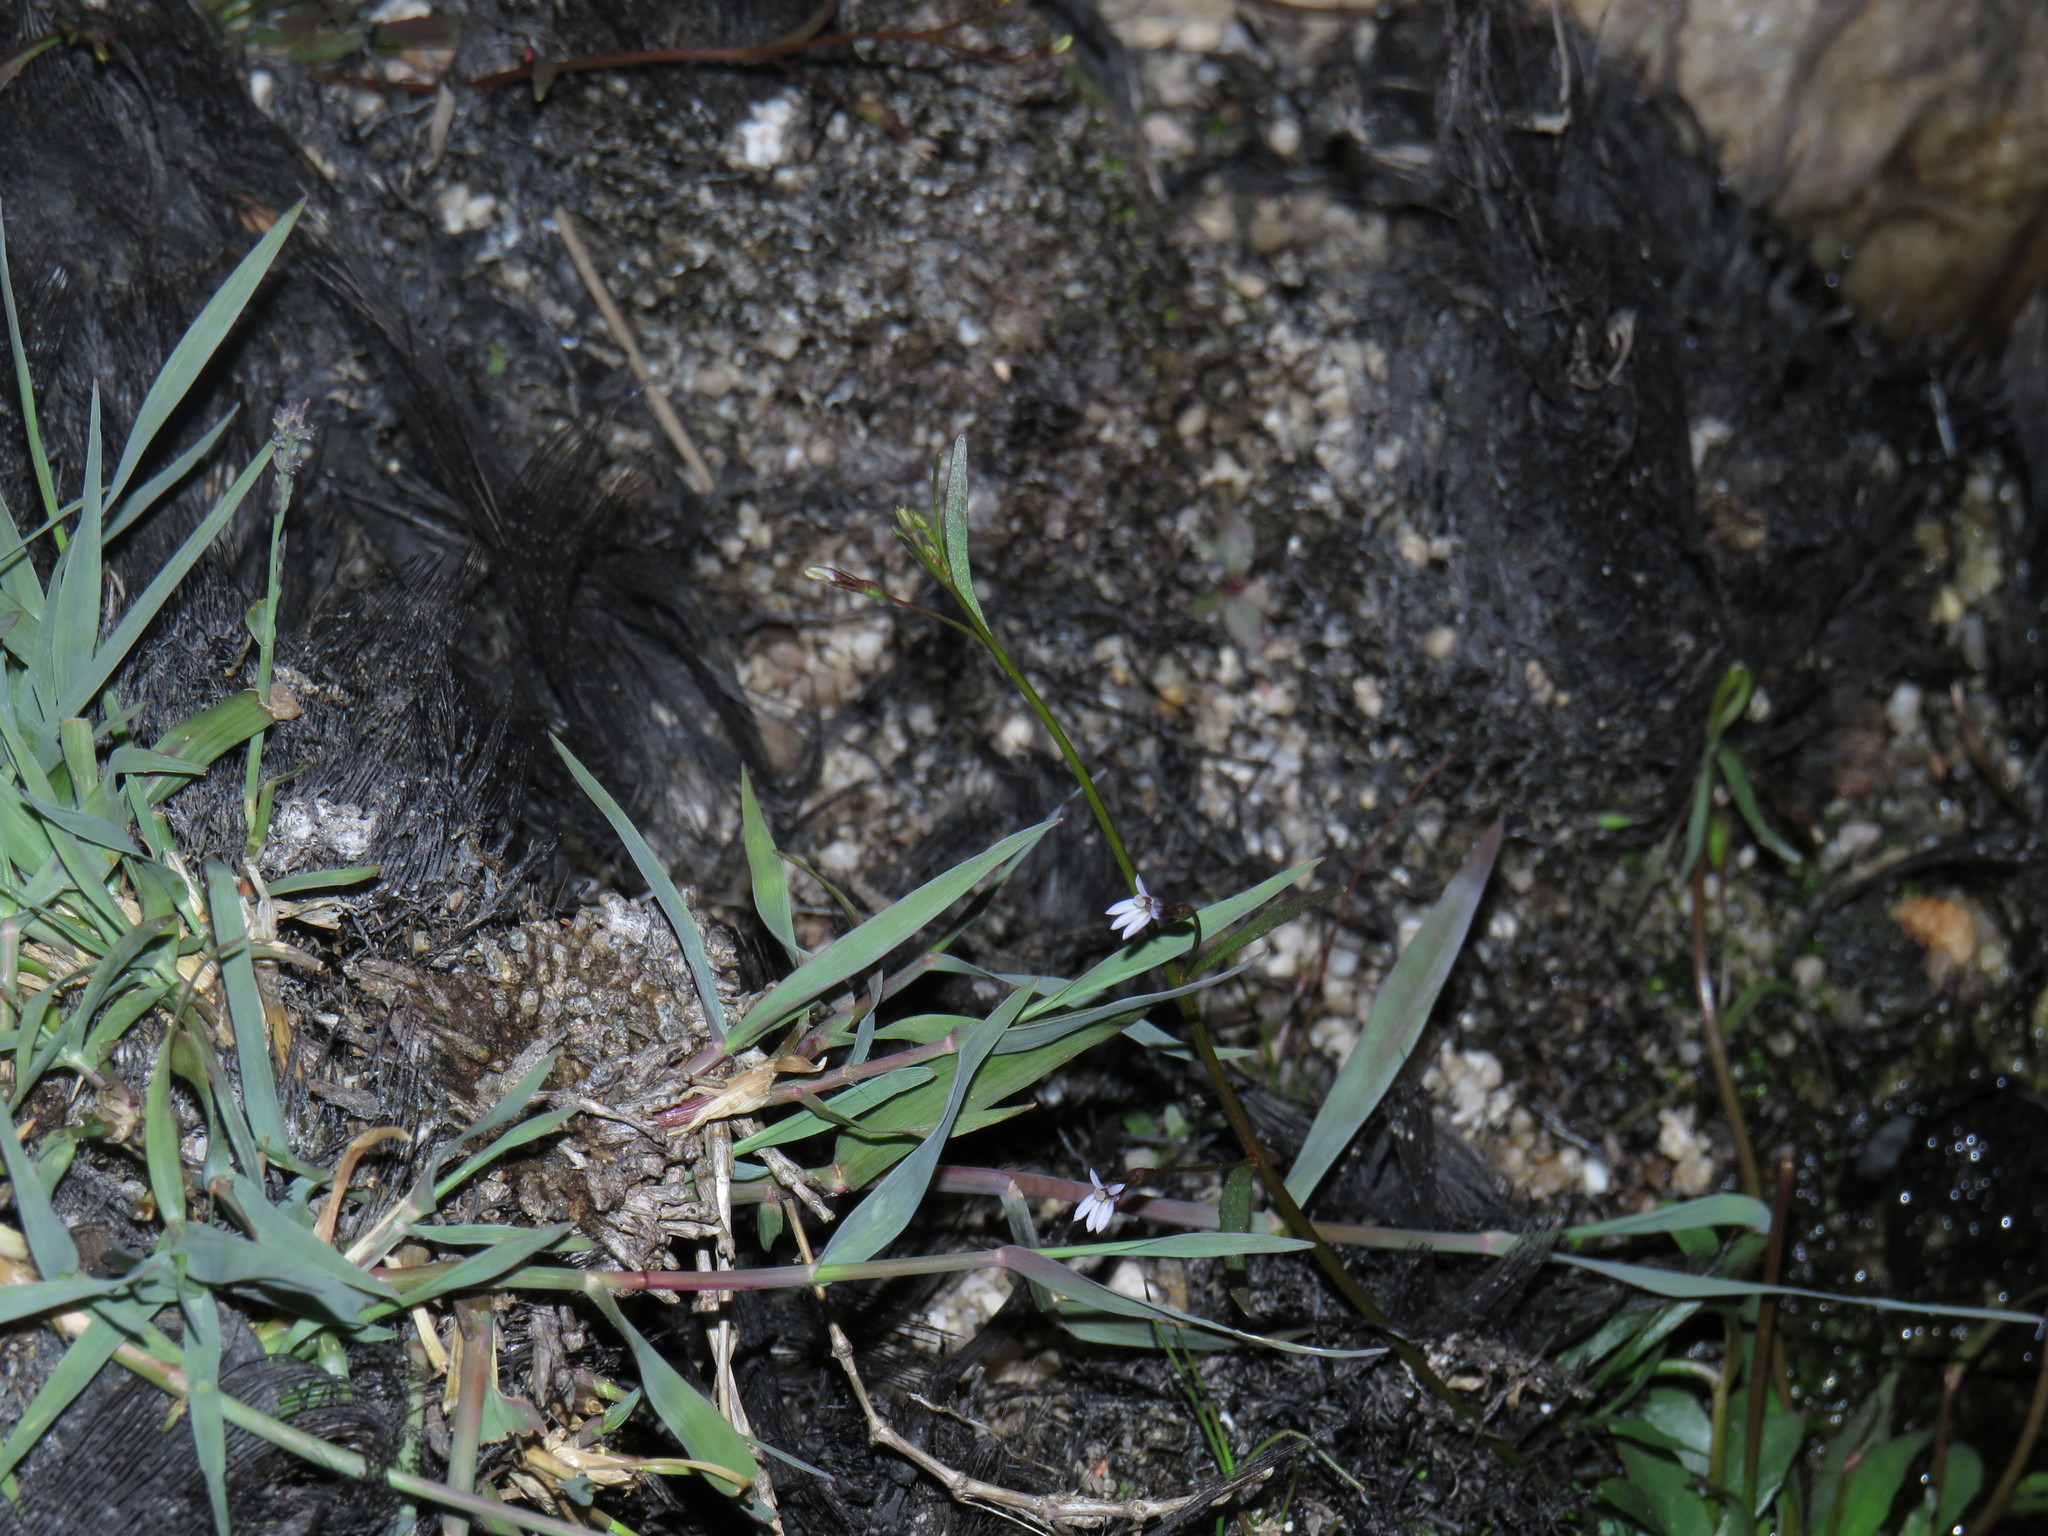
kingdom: Plantae
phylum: Tracheophyta
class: Magnoliopsida
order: Asterales
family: Campanulaceae
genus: Wimmerella
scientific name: Wimmerella arabidea
